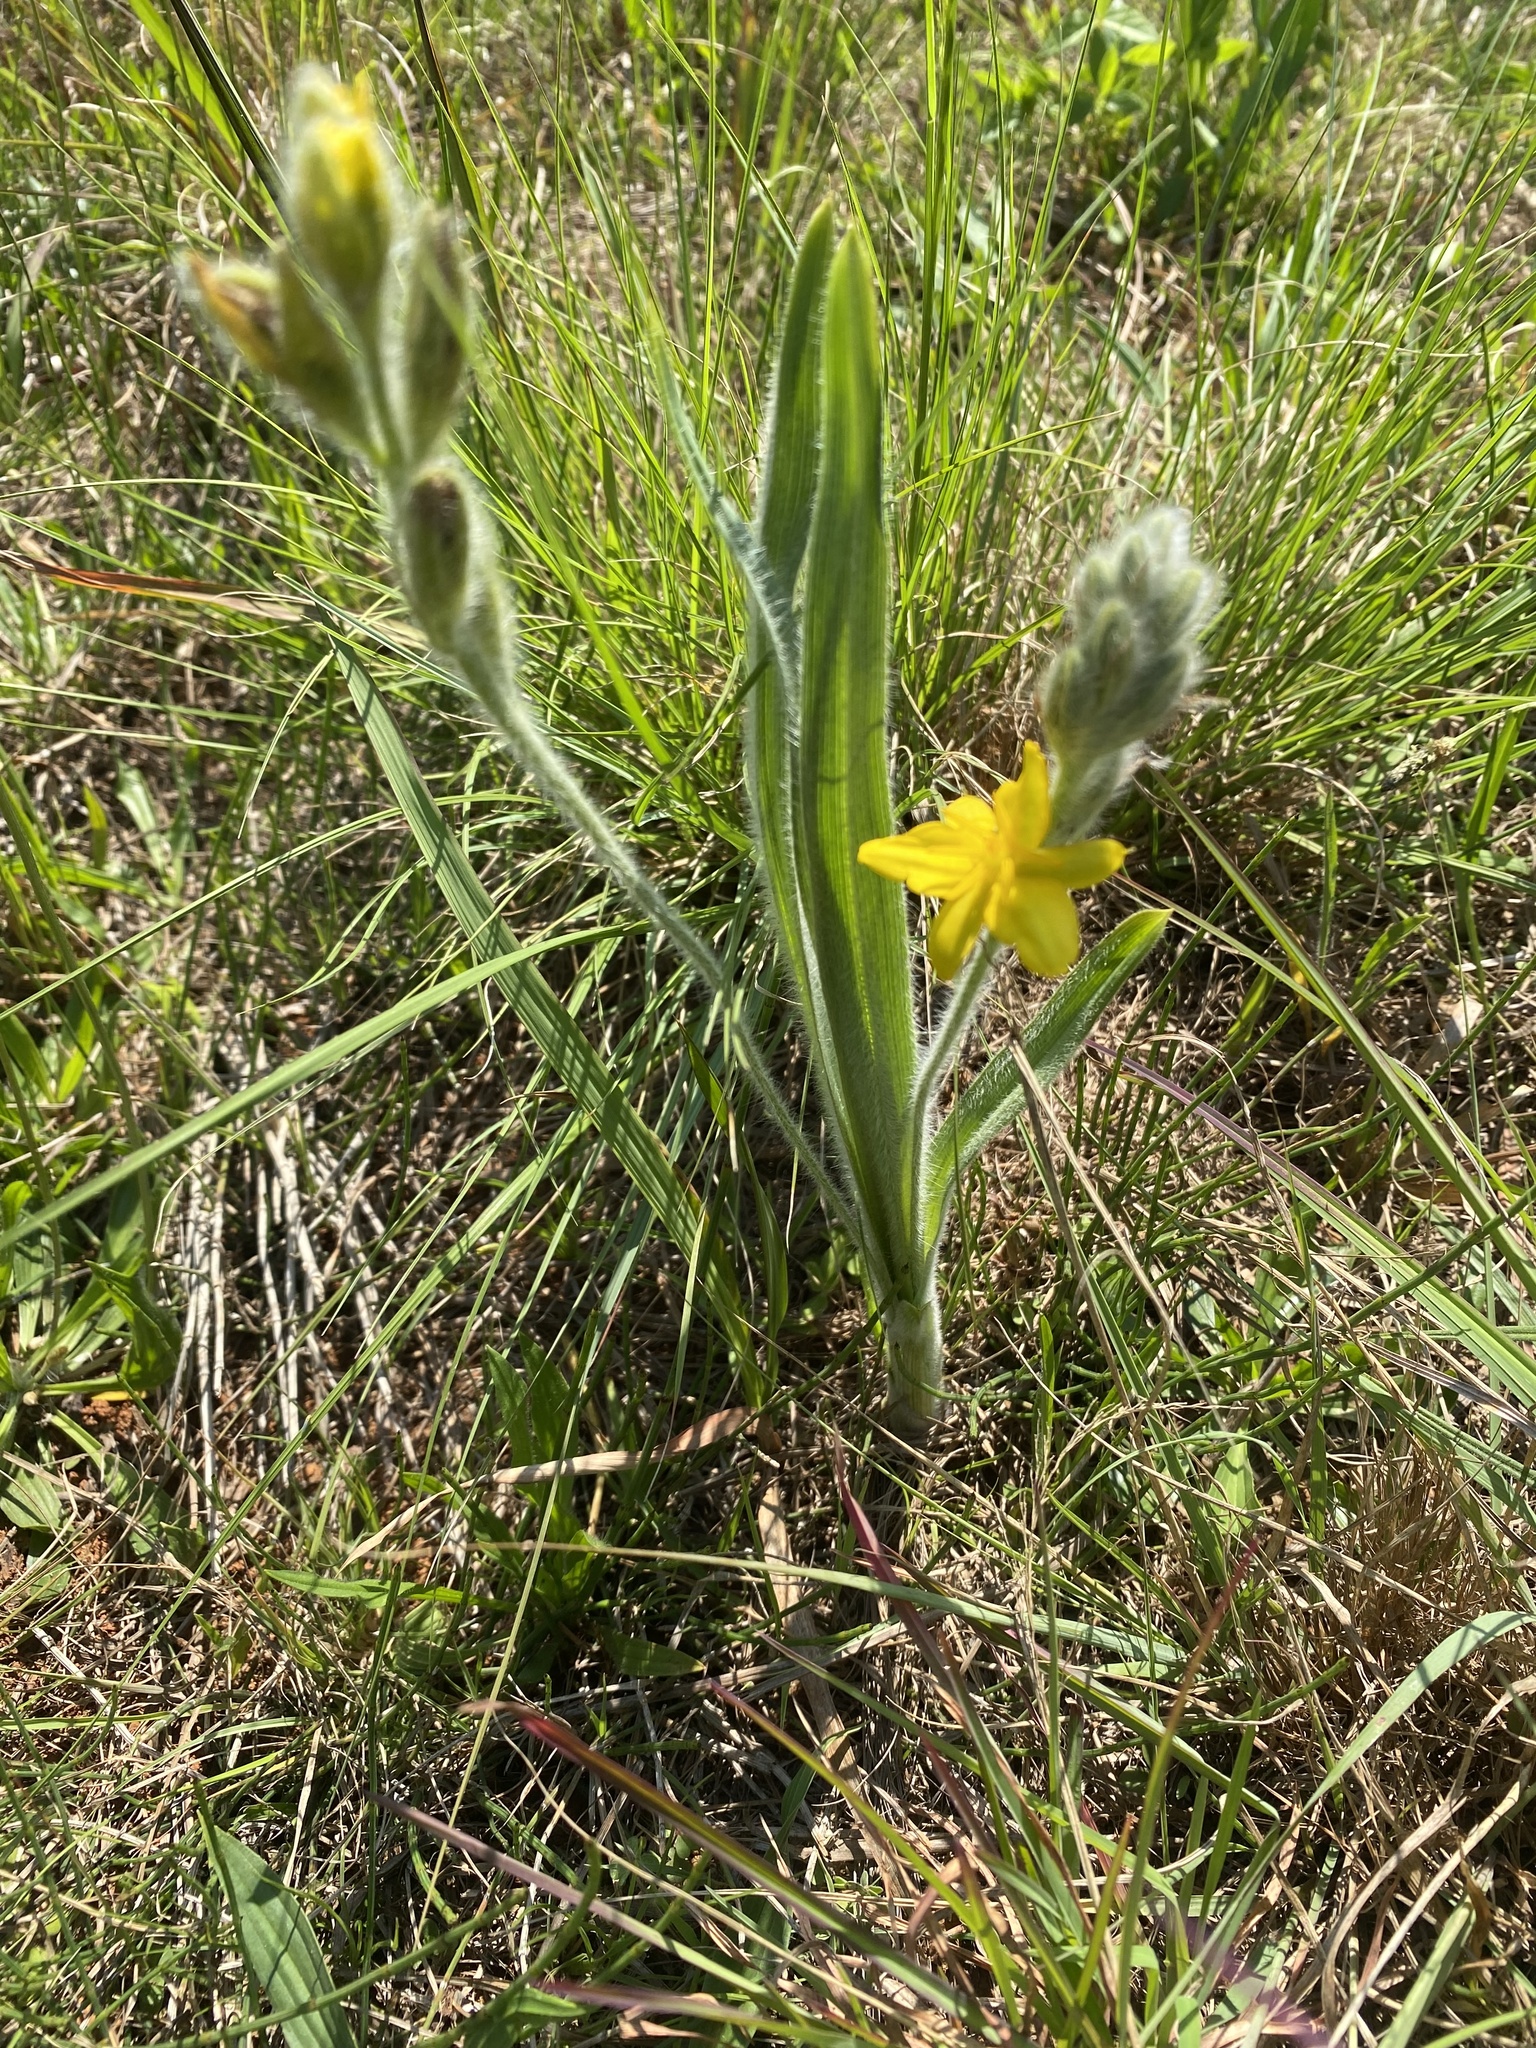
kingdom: Plantae
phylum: Tracheophyta
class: Liliopsida
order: Asparagales
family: Hypoxidaceae
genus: Hypoxis
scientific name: Hypoxis rigidula
